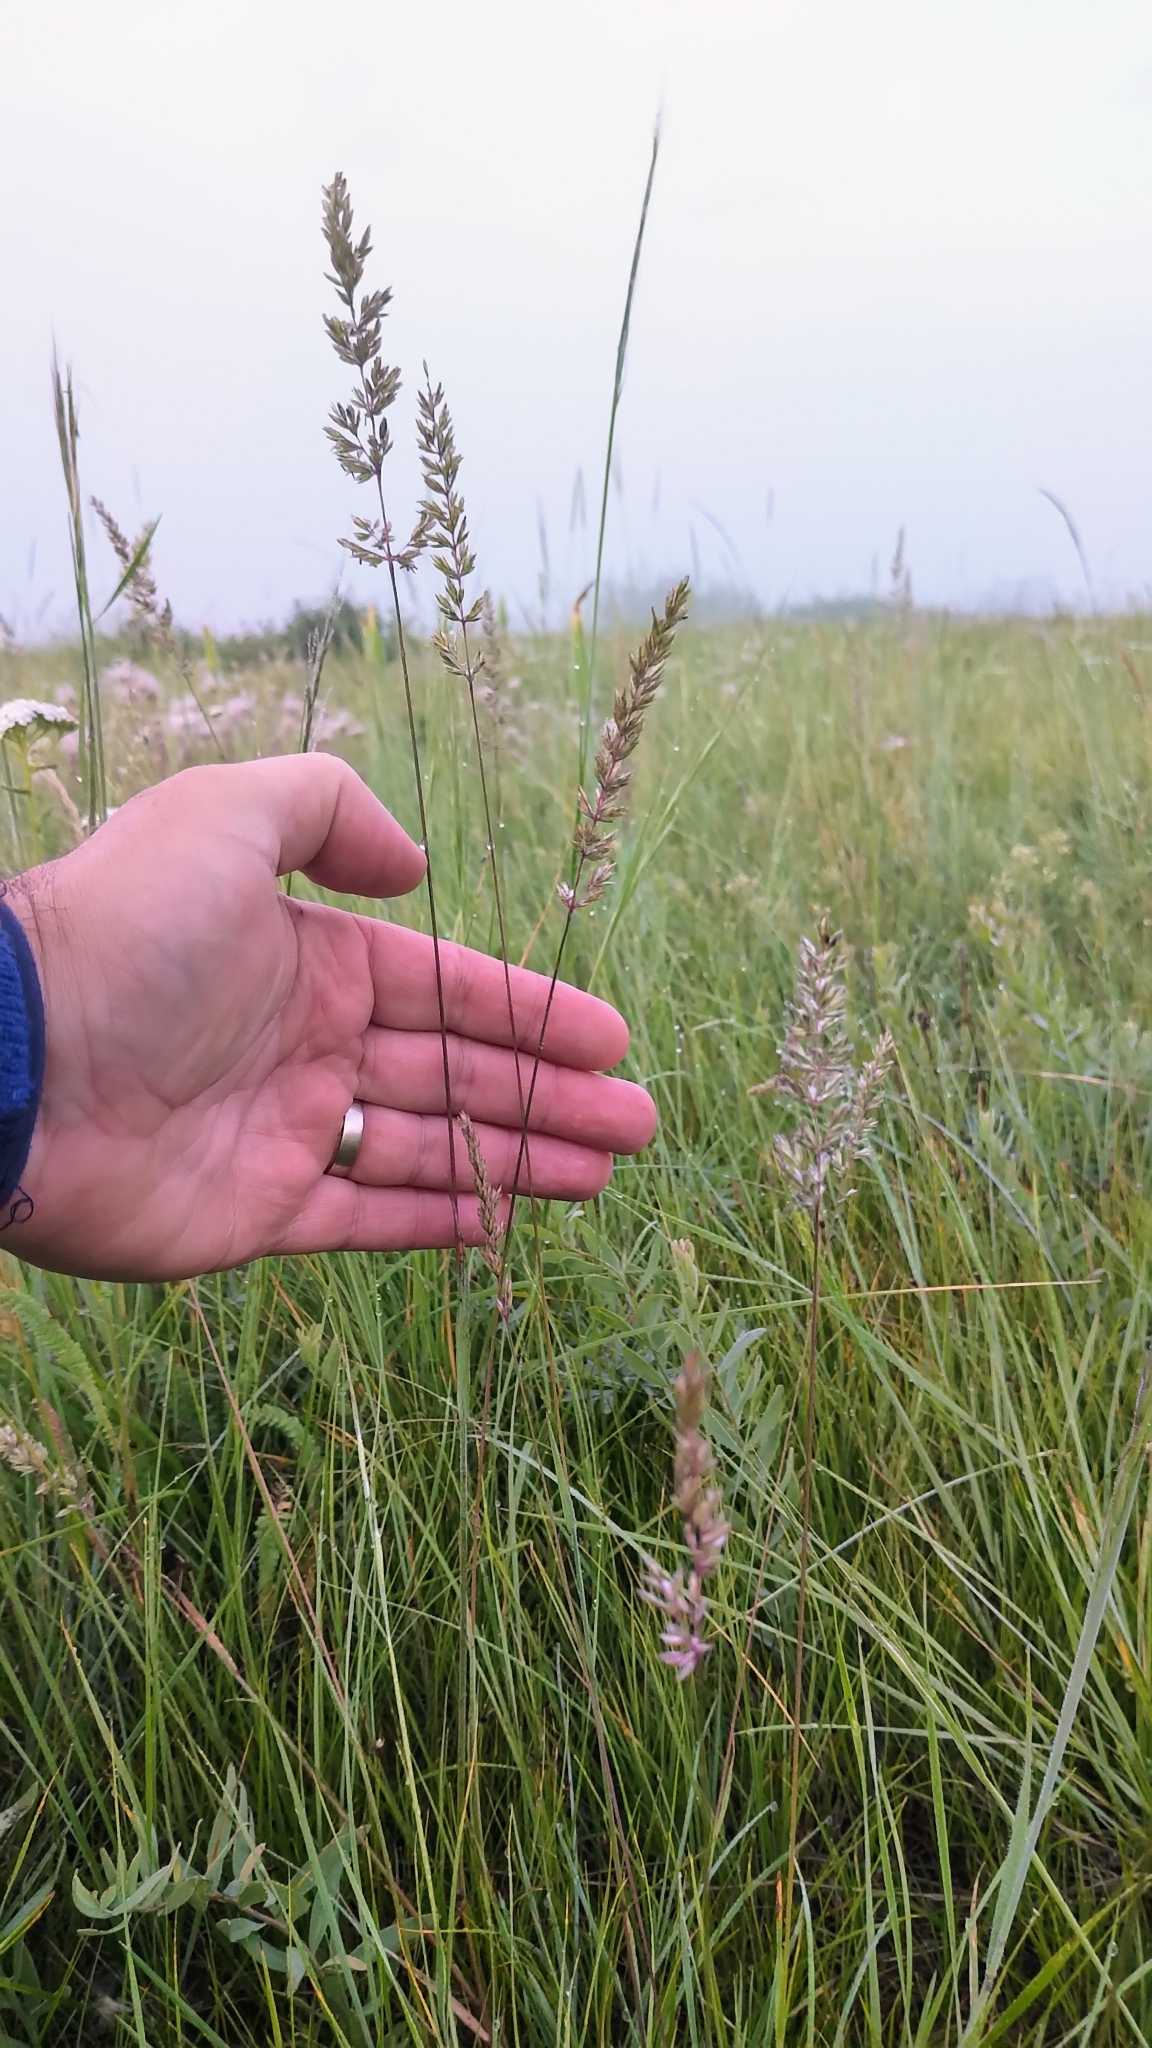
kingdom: Plantae
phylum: Tracheophyta
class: Liliopsida
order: Poales
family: Poaceae
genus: Koeleria
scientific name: Koeleria macrantha
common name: Crested hair-grass
